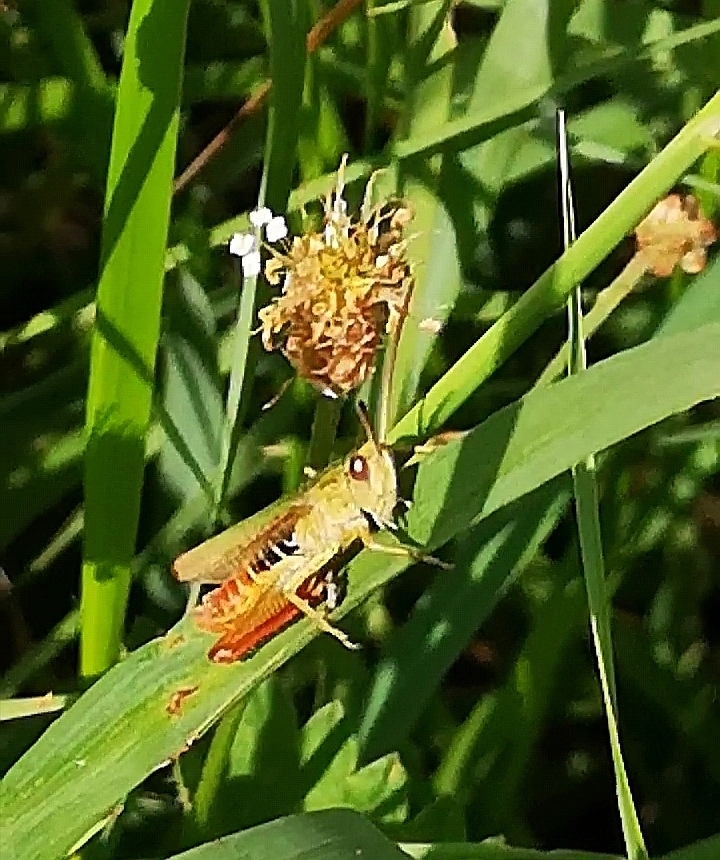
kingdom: Animalia
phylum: Arthropoda
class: Insecta
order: Orthoptera
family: Acrididae
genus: Chorthippus
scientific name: Chorthippus dorsatus
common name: Steppe grasshopper
